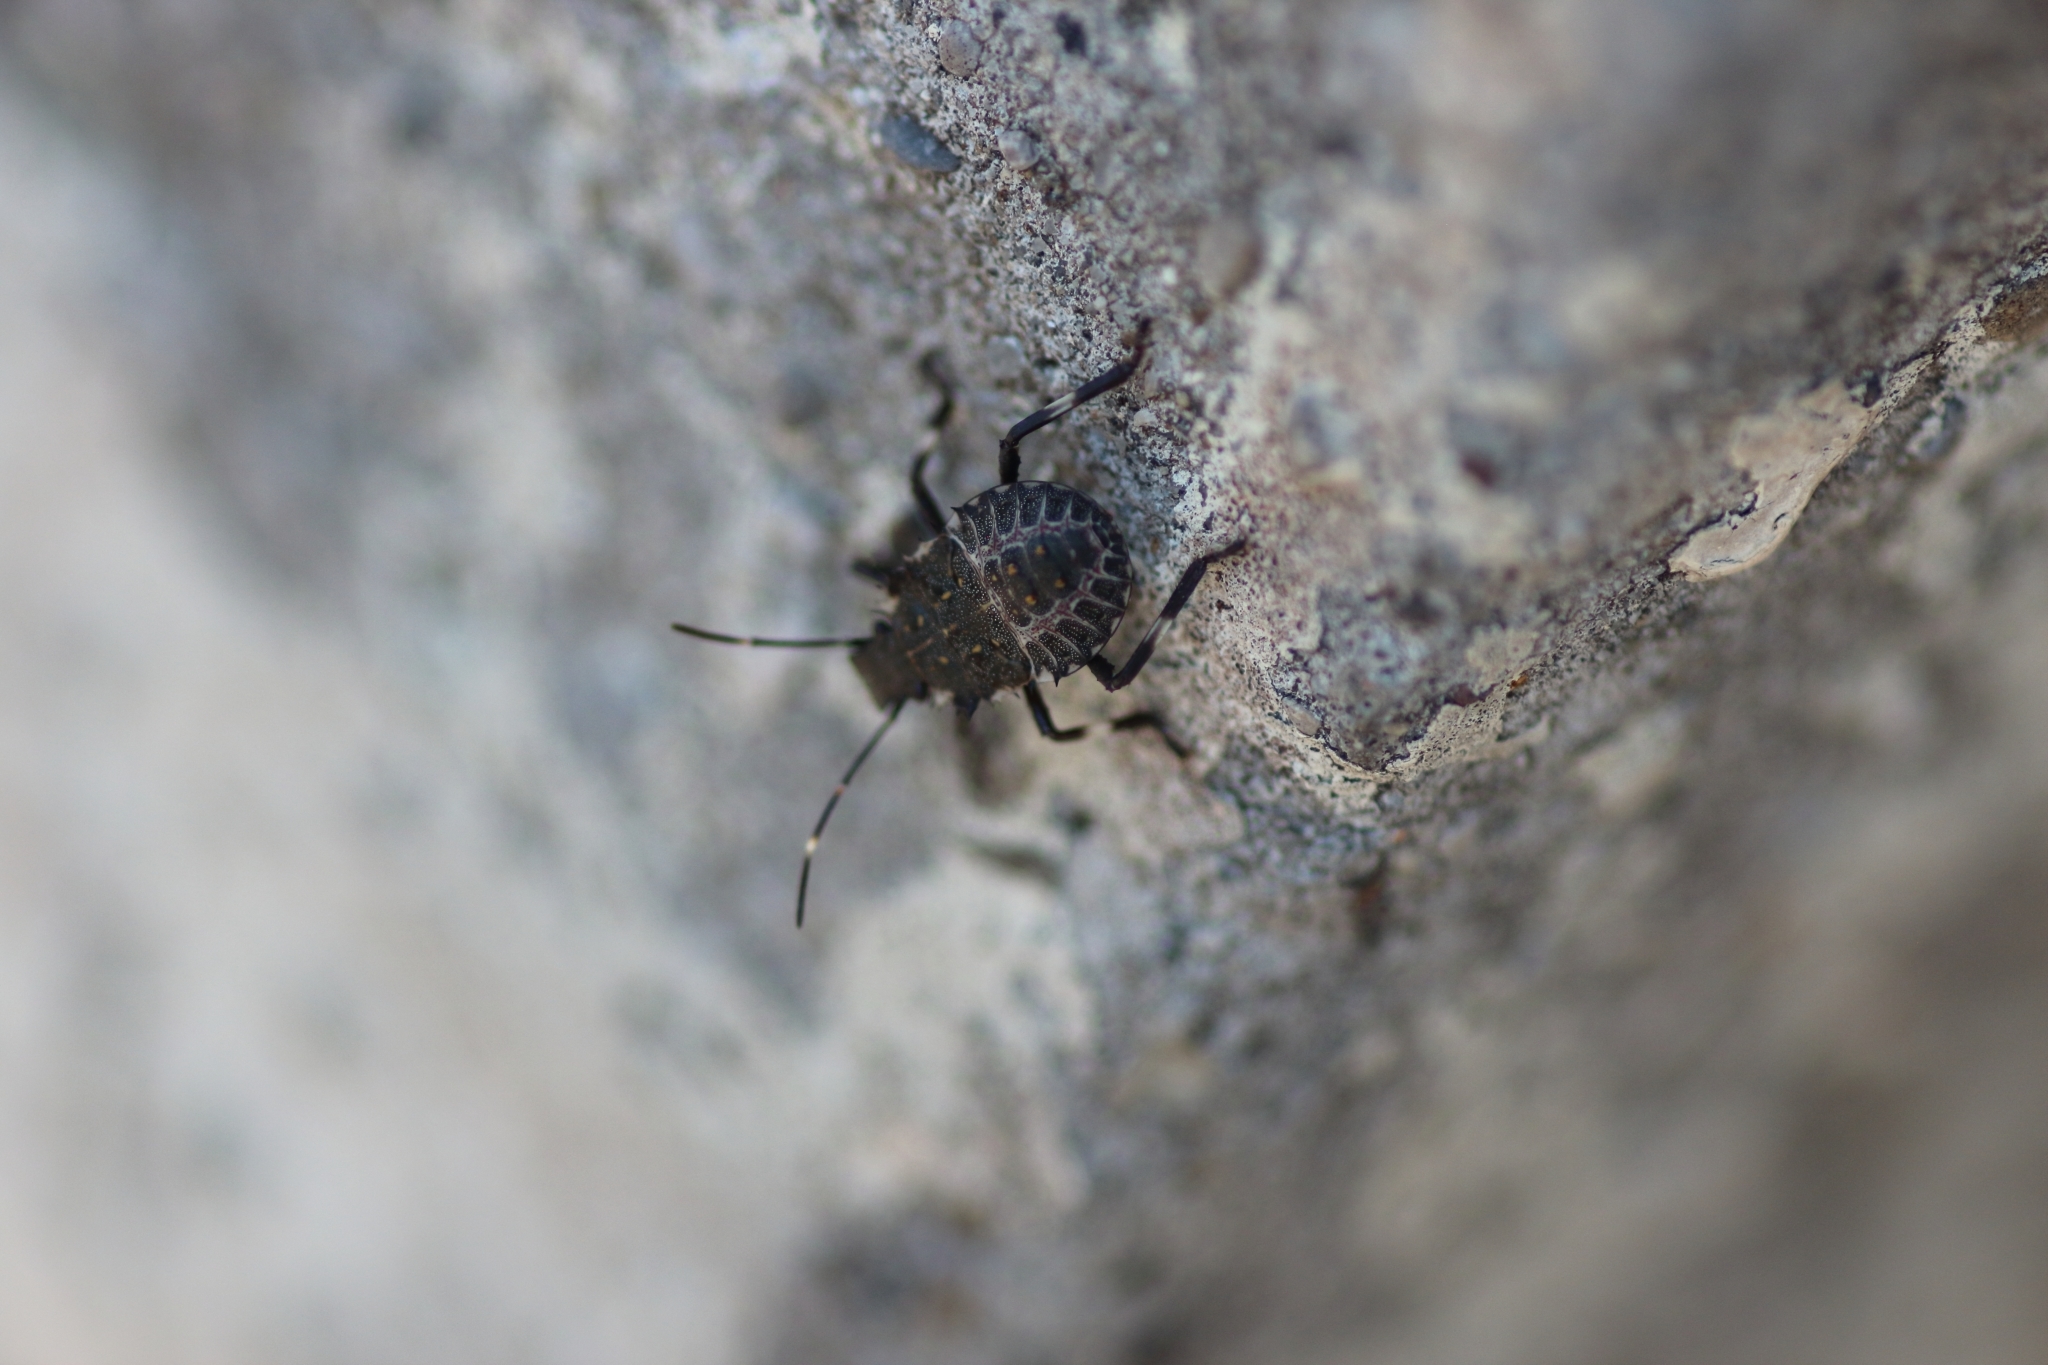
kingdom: Animalia
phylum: Arthropoda
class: Insecta
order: Hemiptera
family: Pentatomidae
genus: Halyomorpha
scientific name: Halyomorpha halys
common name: Brown marmorated stink bug
